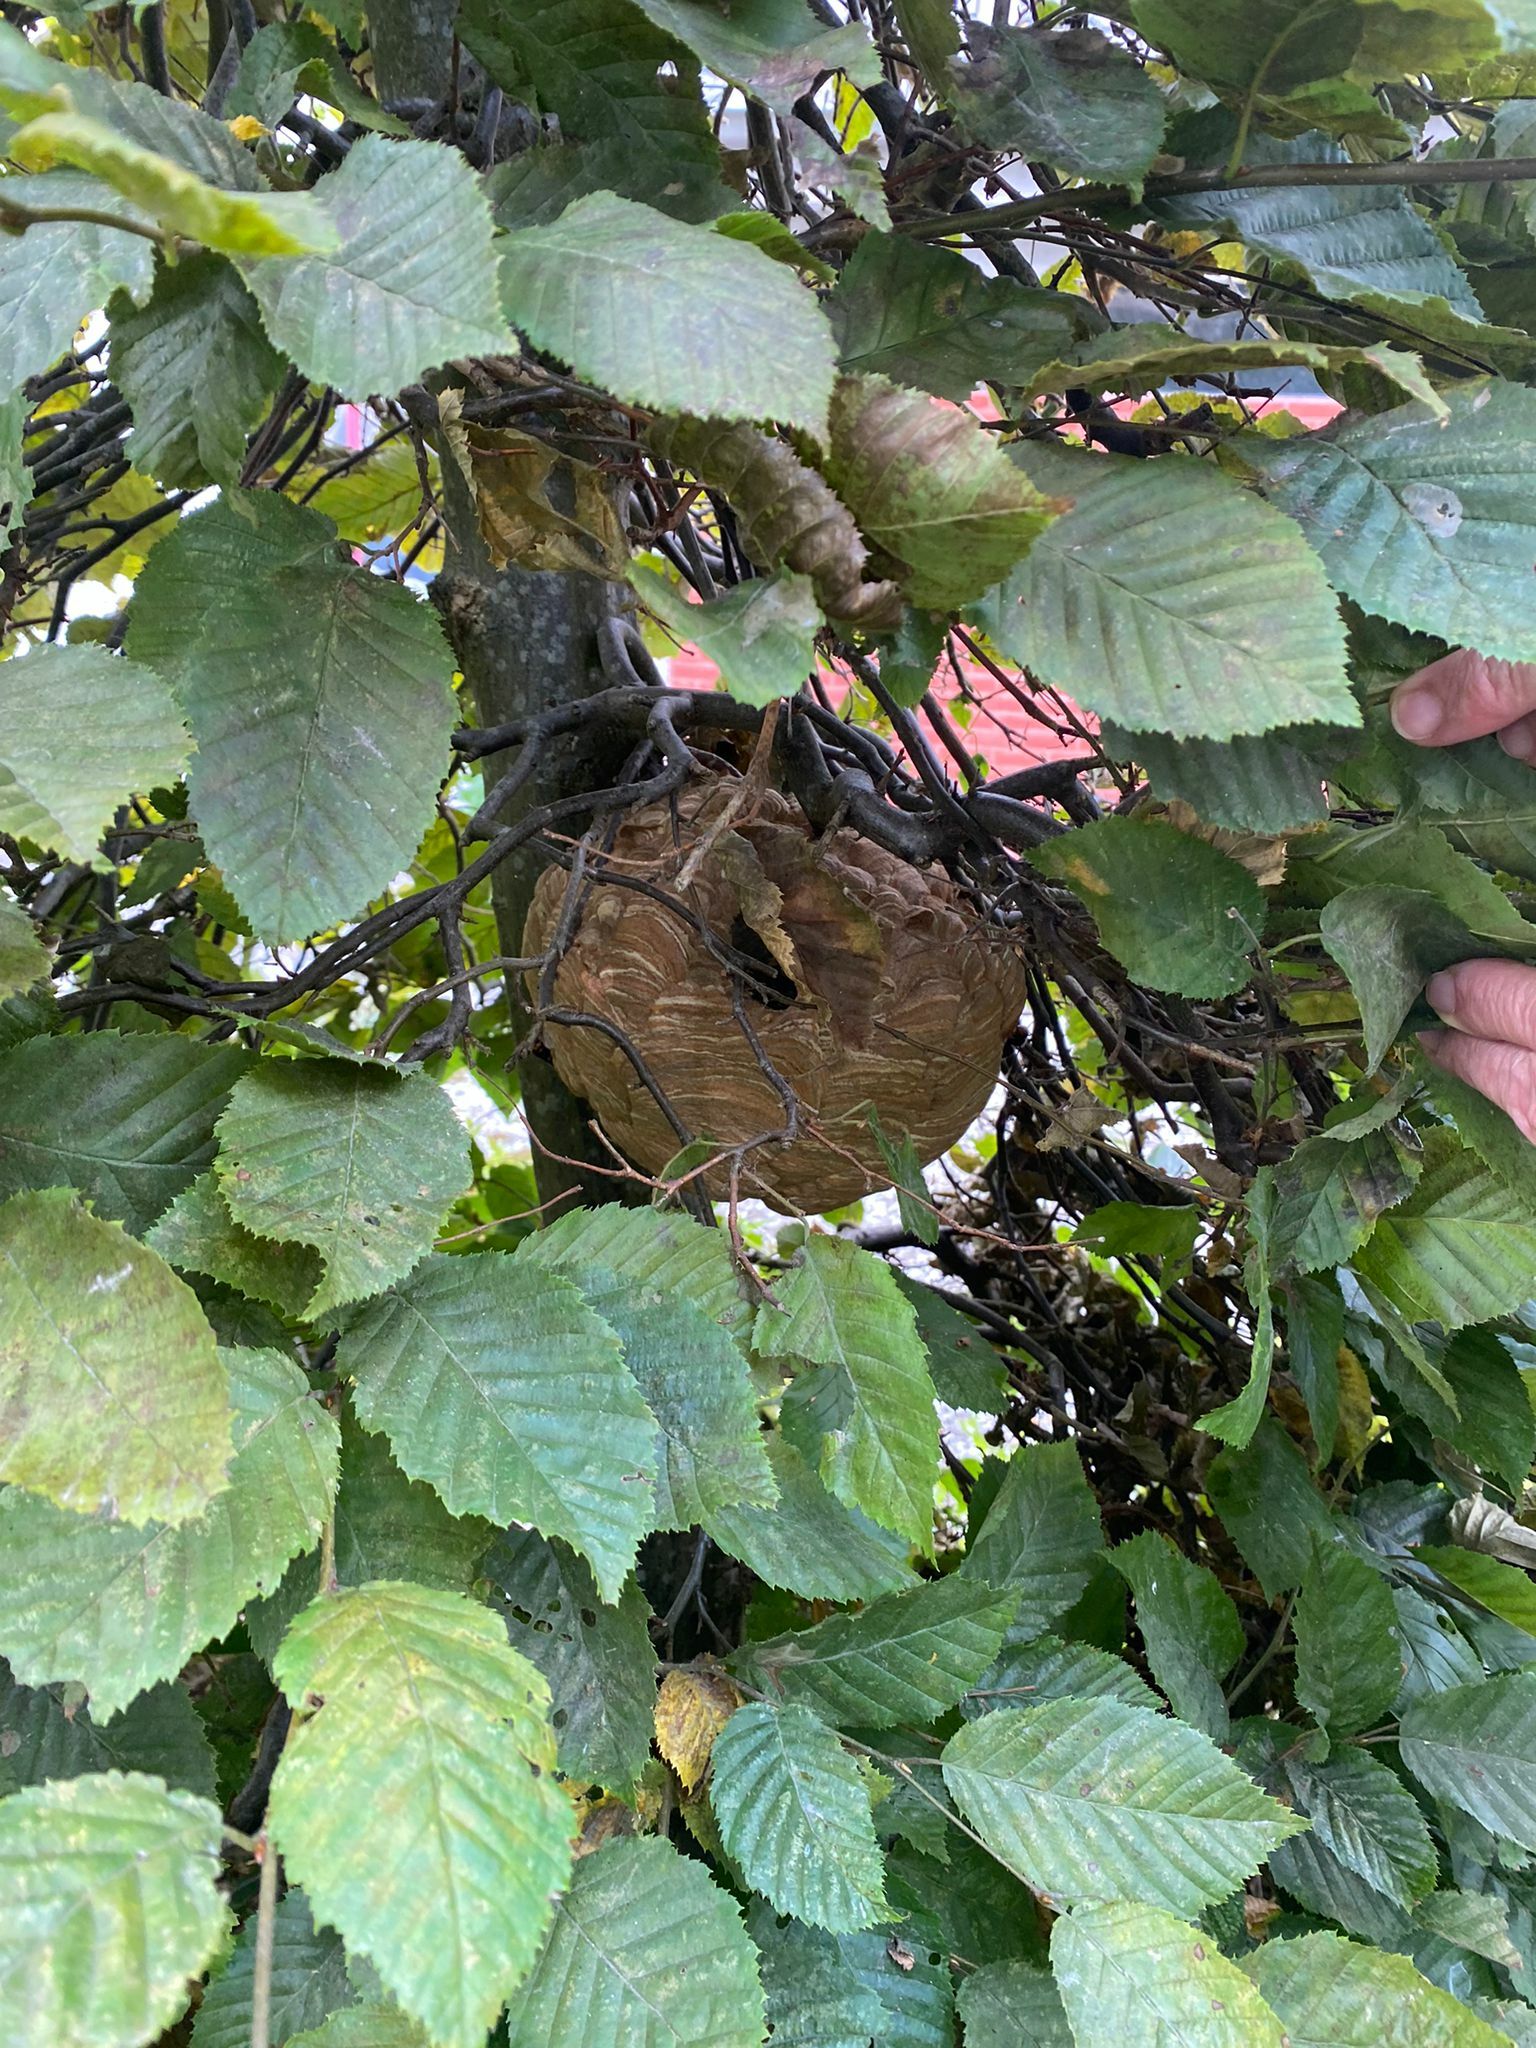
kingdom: Animalia
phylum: Arthropoda
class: Insecta
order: Hymenoptera
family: Vespidae
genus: Vespa
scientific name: Vespa velutina
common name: Asian hornet
